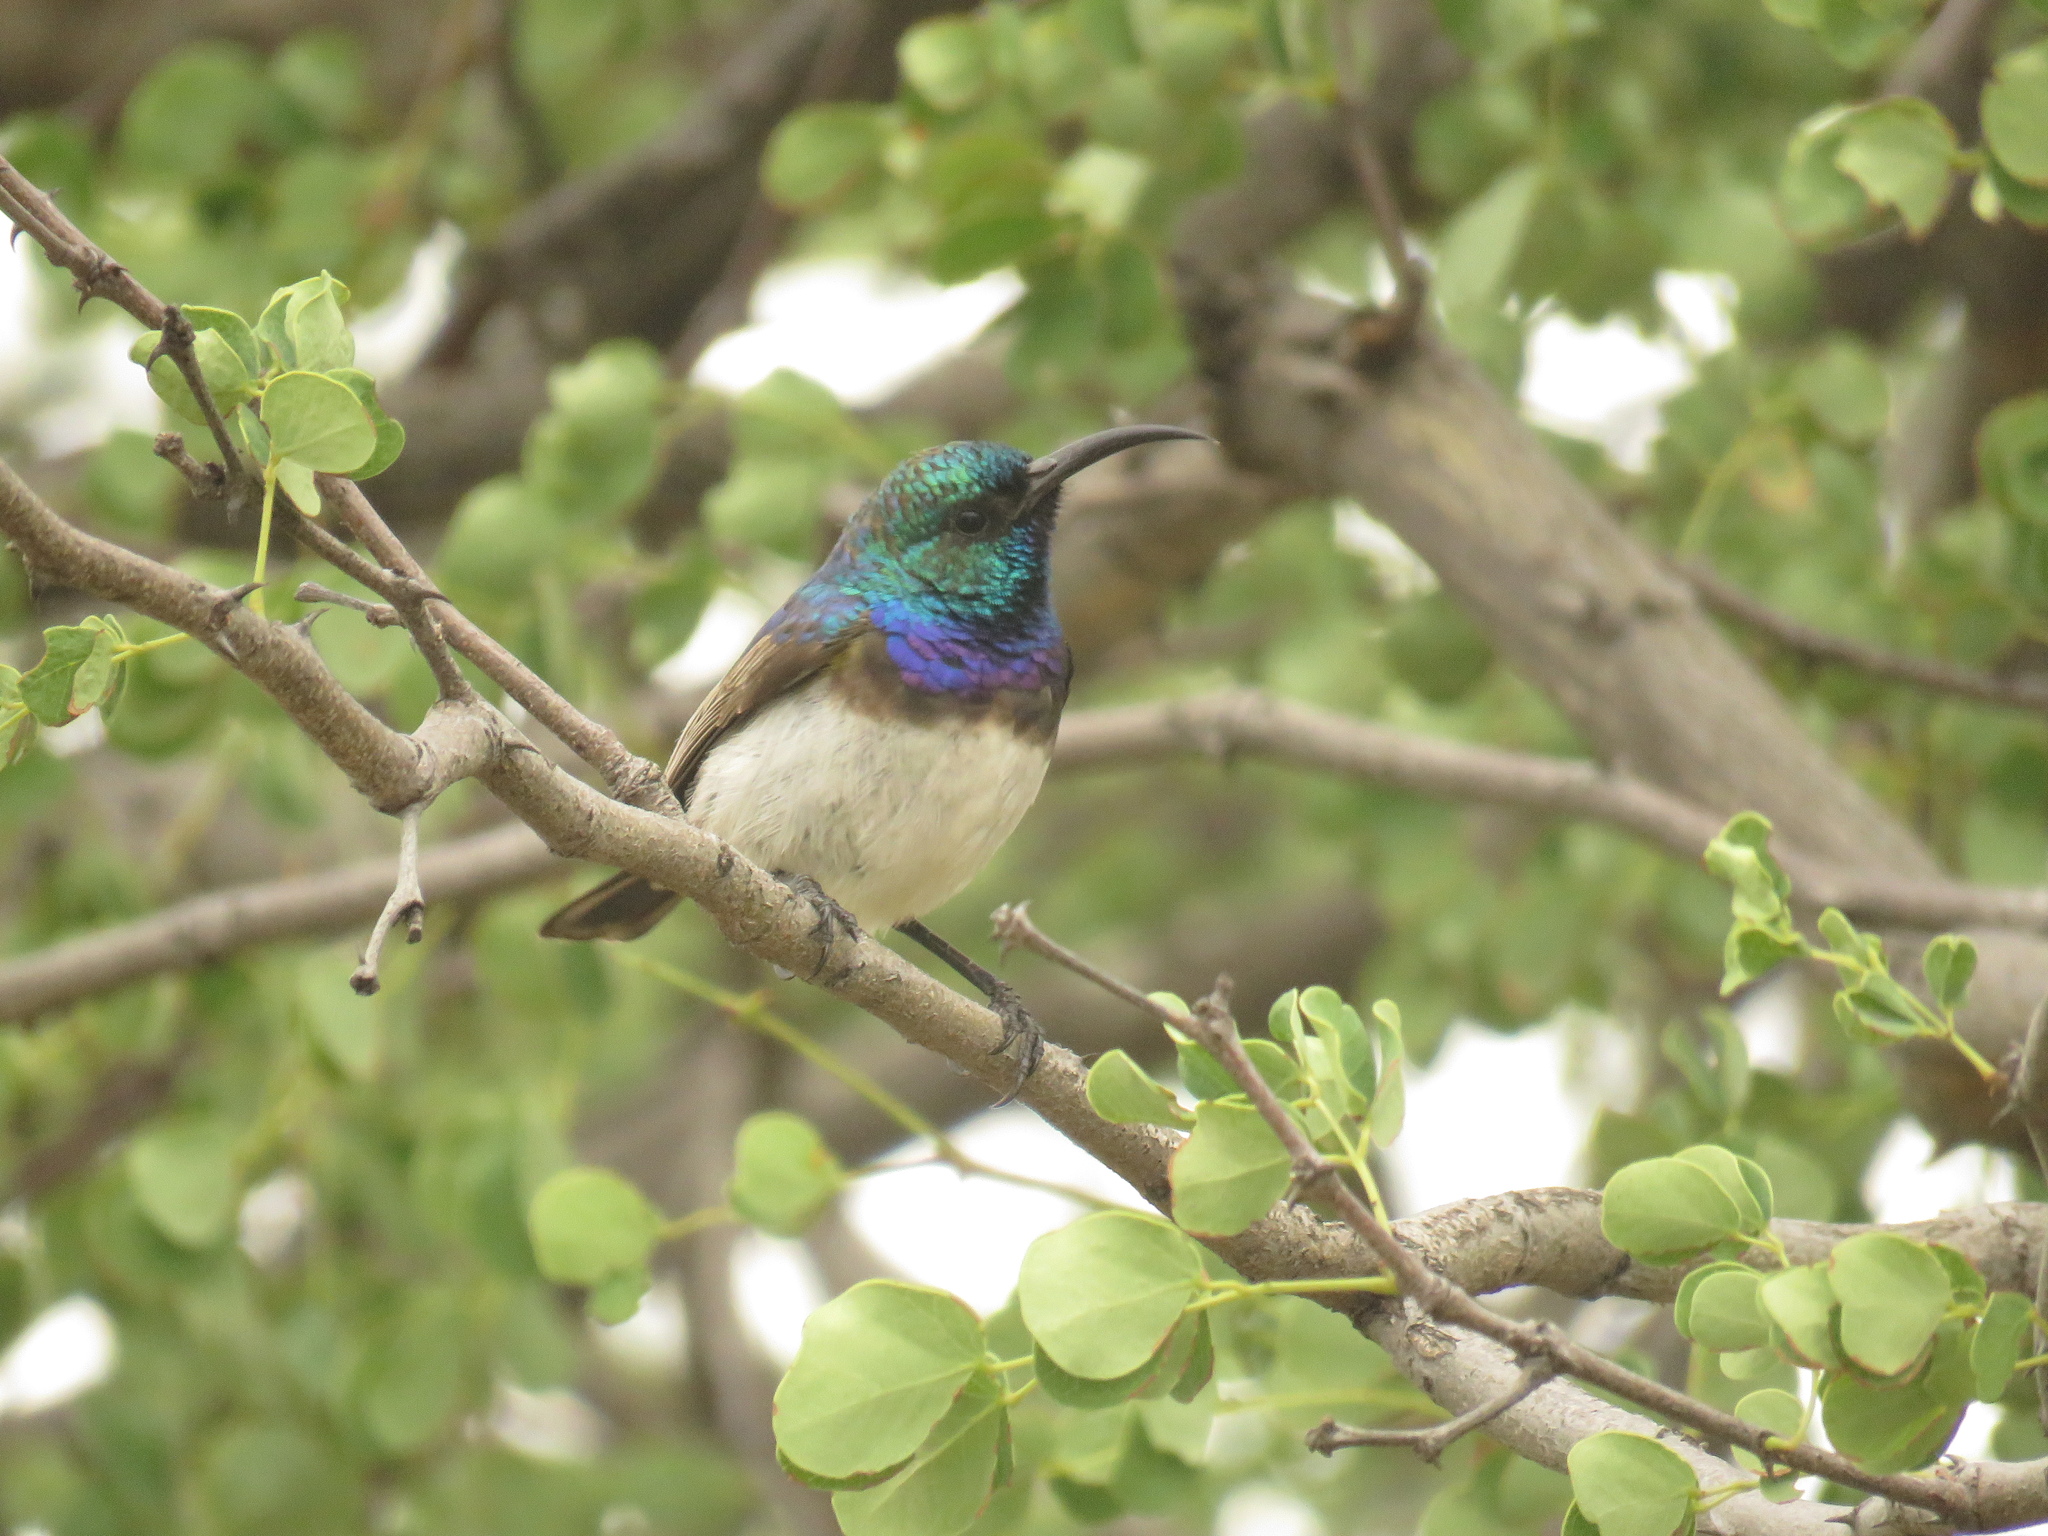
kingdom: Animalia
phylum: Chordata
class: Aves
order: Passeriformes
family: Nectariniidae
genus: Cinnyris
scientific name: Cinnyris talatala
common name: White-bellied sunbird
